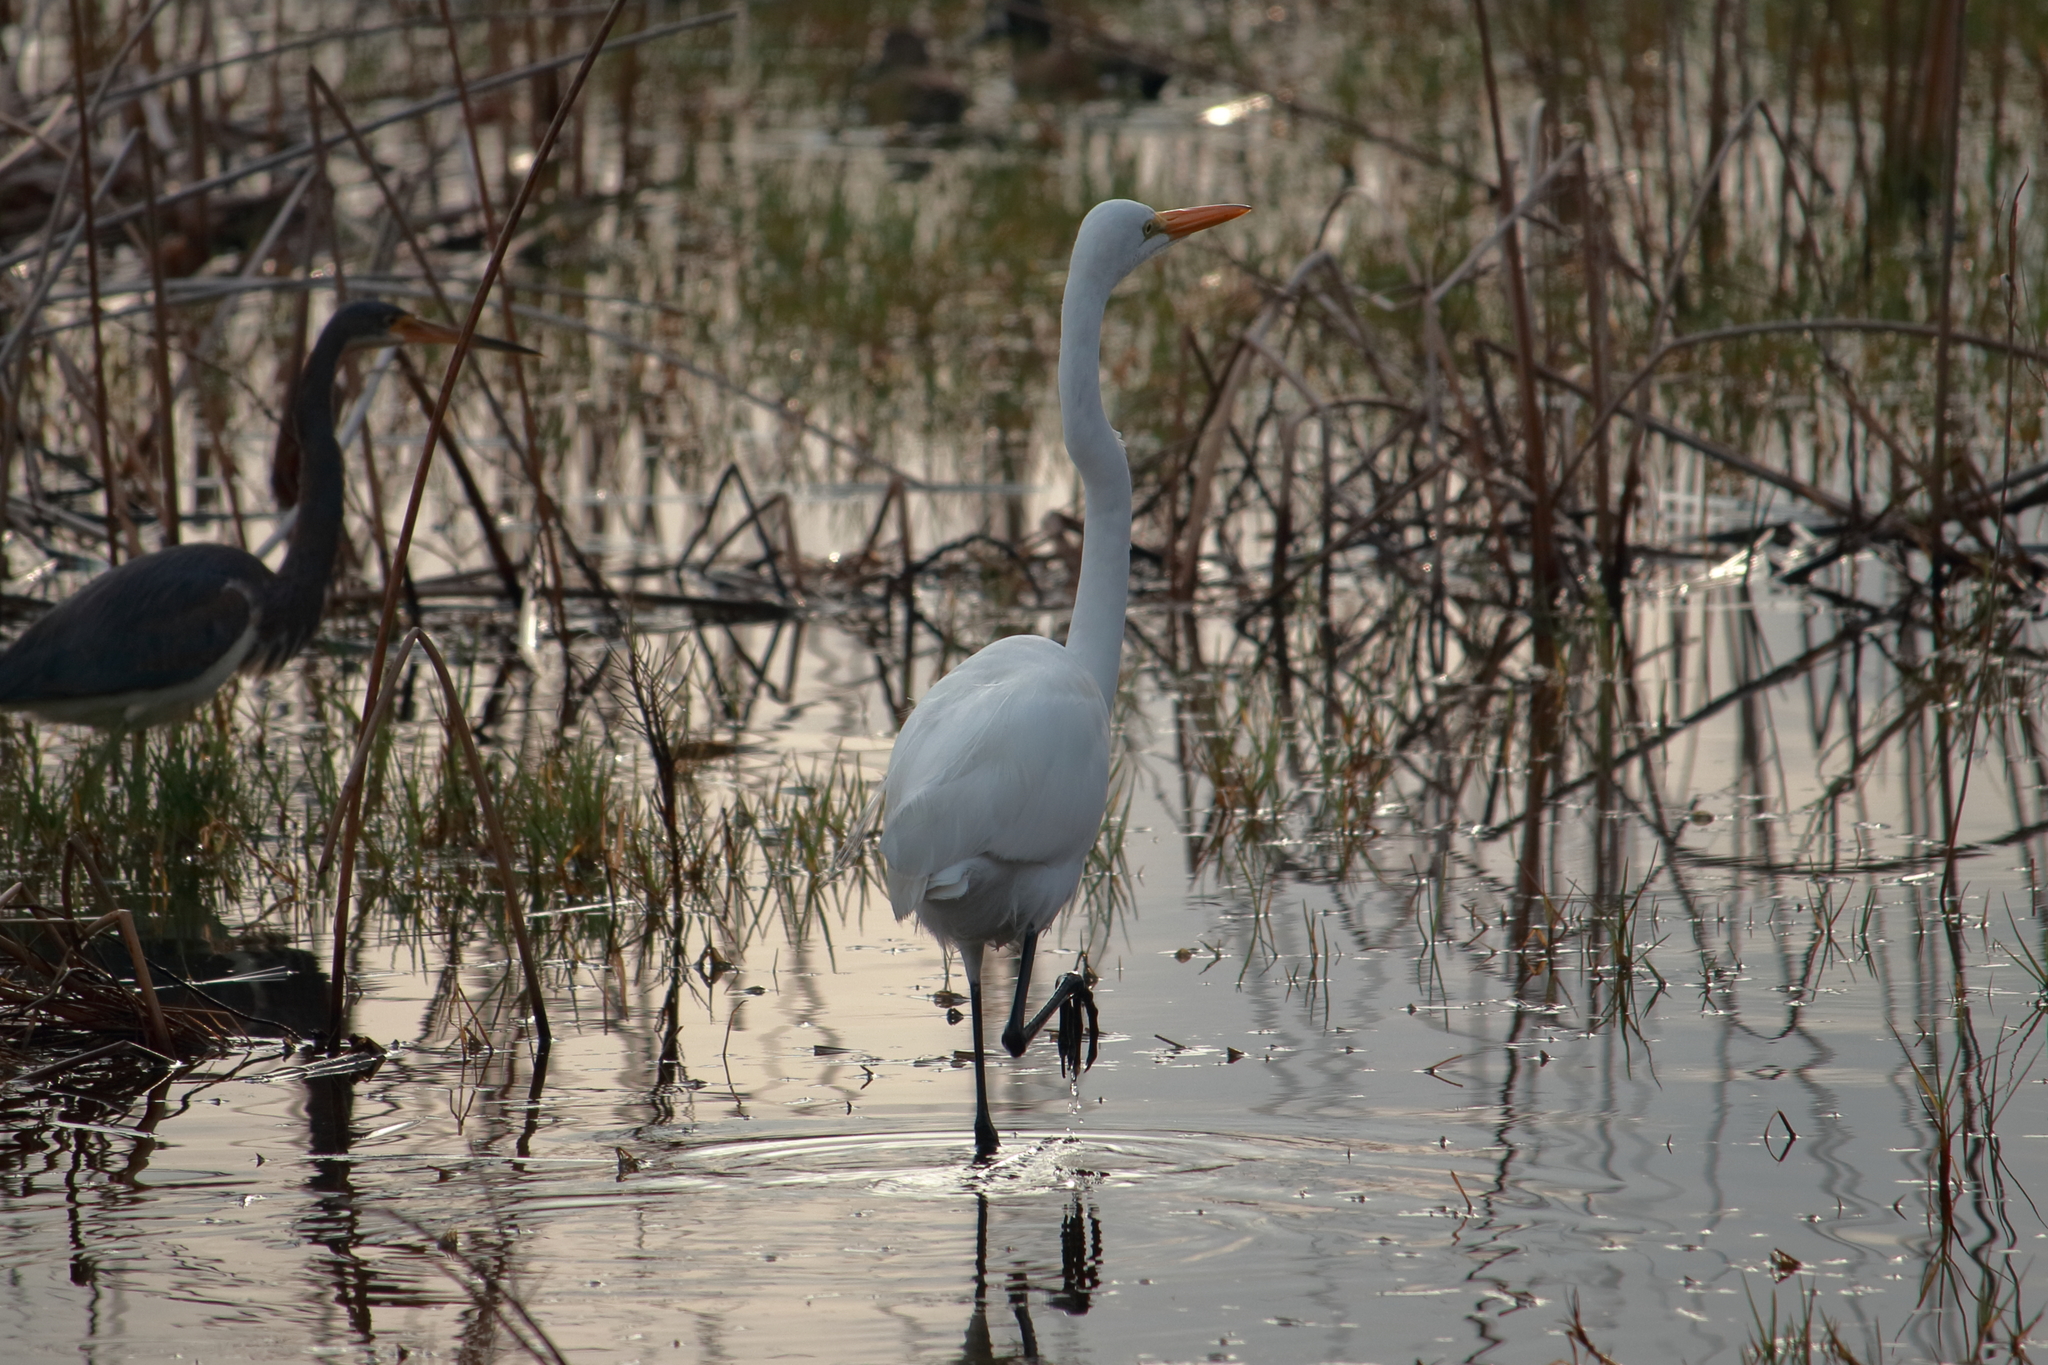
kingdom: Animalia
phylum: Chordata
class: Aves
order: Pelecaniformes
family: Ardeidae
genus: Ardea
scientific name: Ardea alba
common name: Great egret
